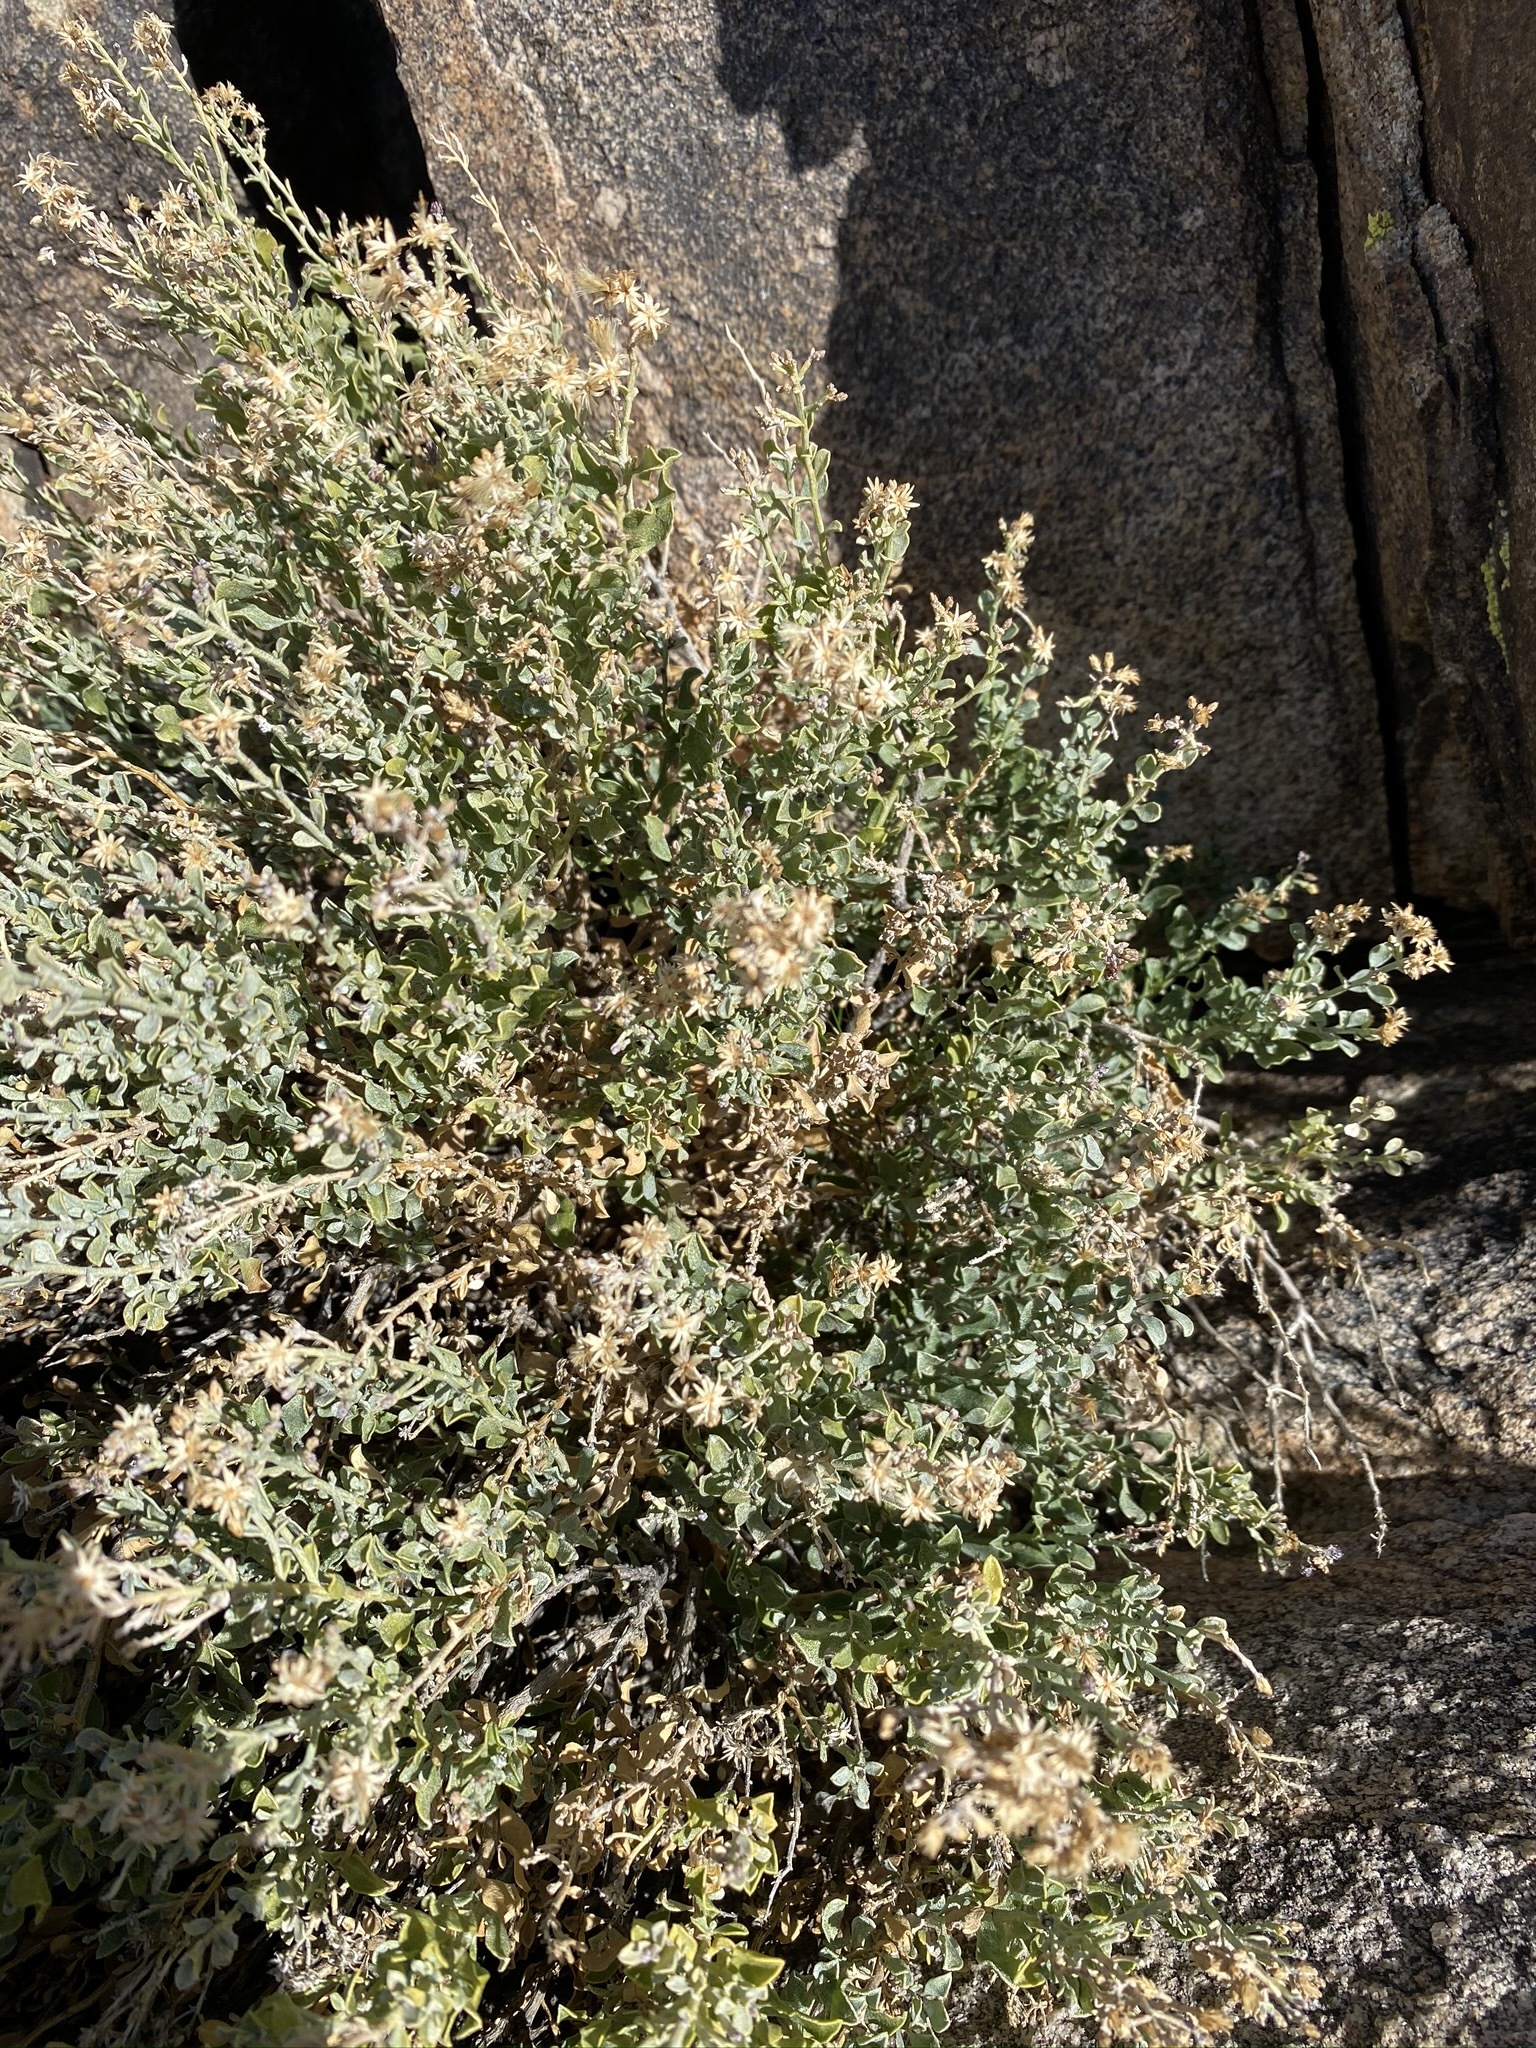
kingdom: Plantae
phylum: Tracheophyta
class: Magnoliopsida
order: Asterales
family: Asteraceae
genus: Ericameria
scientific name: Ericameria cuneata
